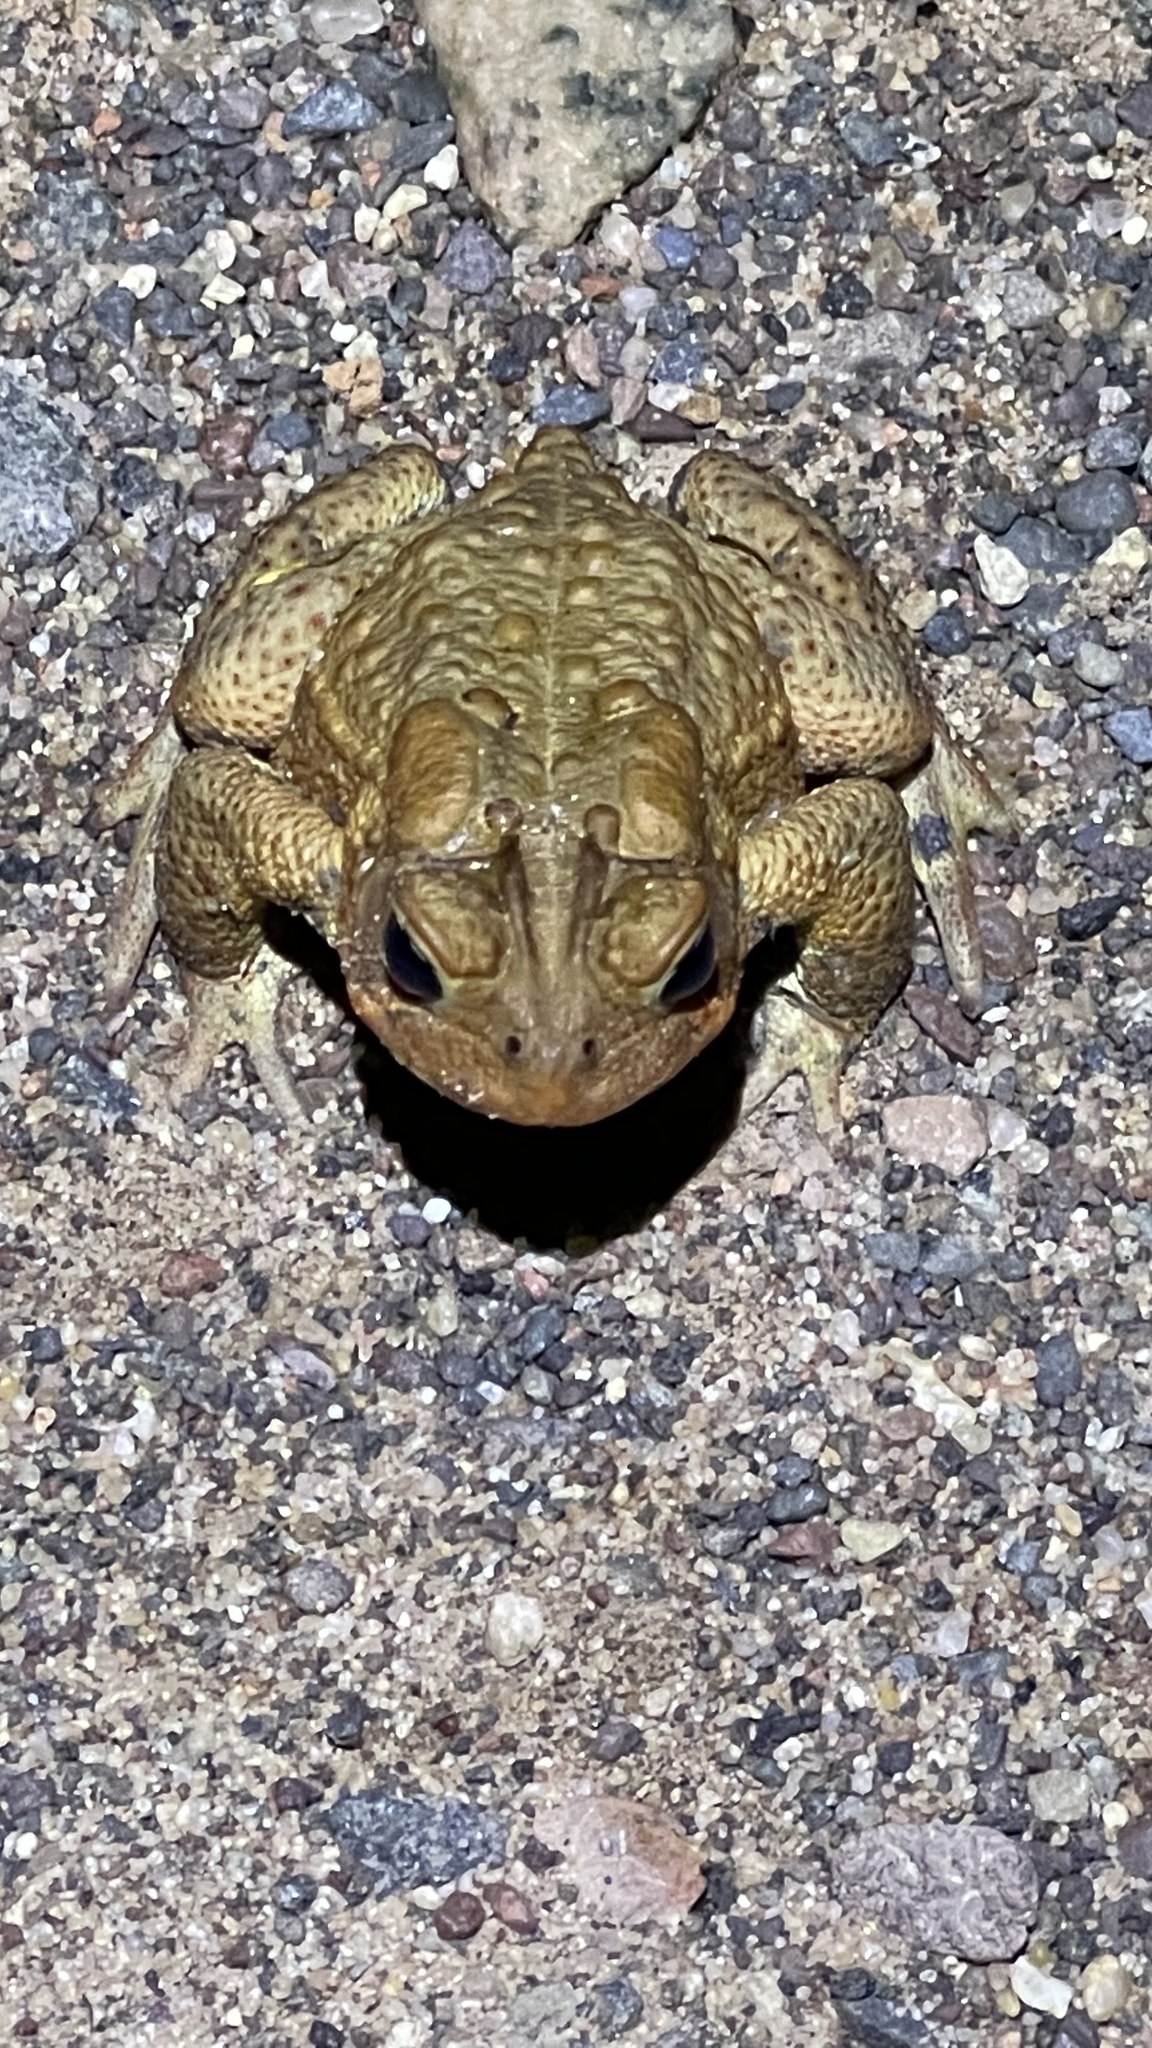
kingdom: Animalia
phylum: Chordata
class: Amphibia
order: Anura
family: Bufonidae
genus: Anaxyrus
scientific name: Anaxyrus americanus
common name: American toad
